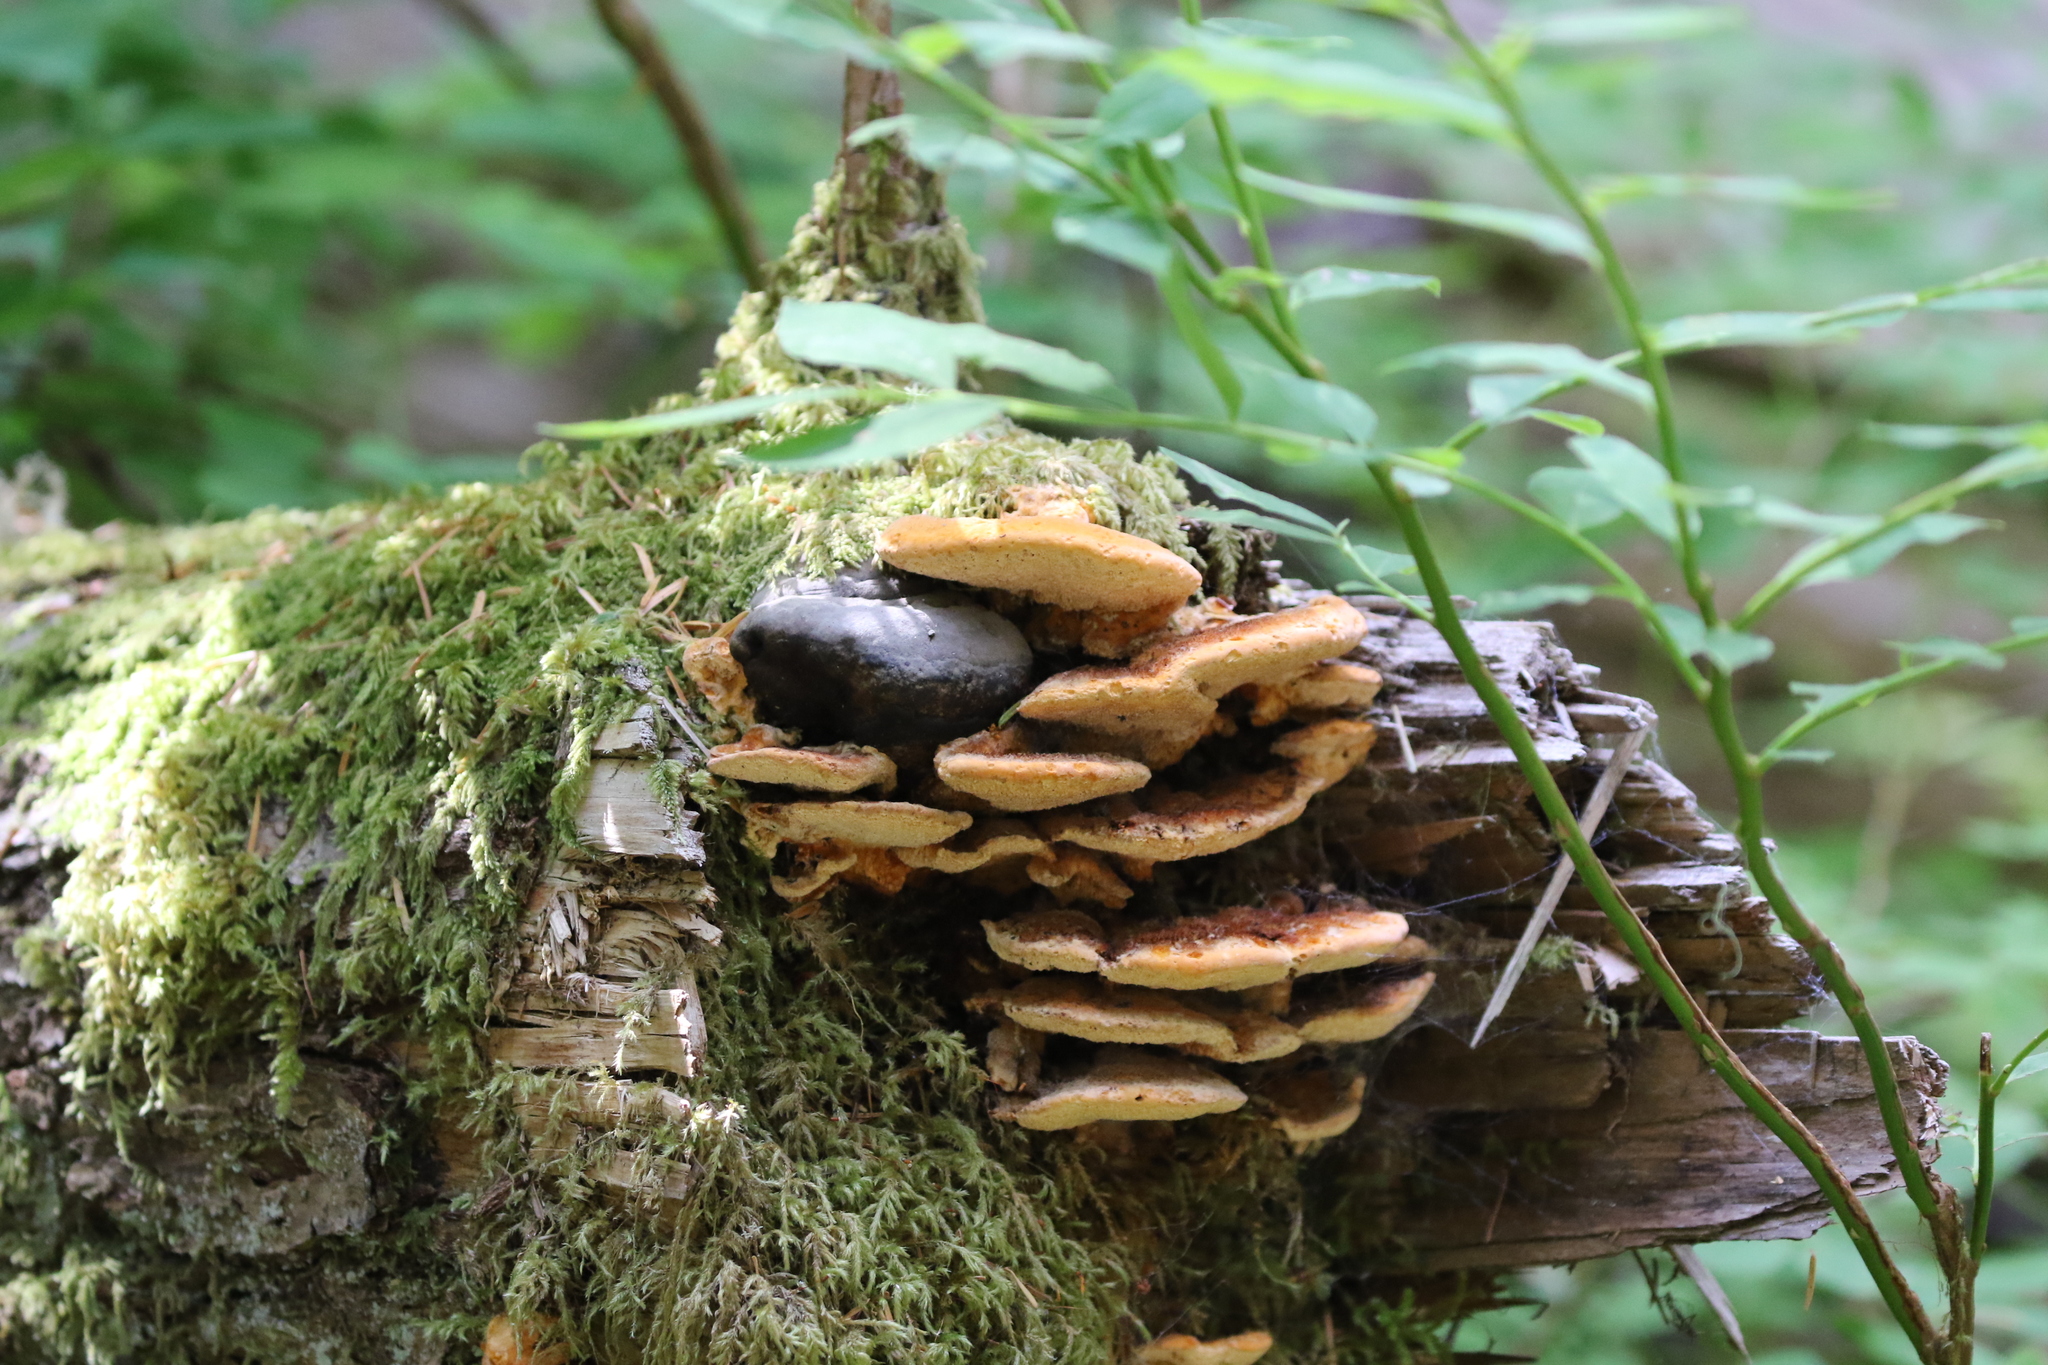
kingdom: Fungi
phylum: Basidiomycota
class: Agaricomycetes
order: Polyporales
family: Fomitopsidaceae
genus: Fomitopsis
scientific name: Fomitopsis mounceae
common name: Northern red belt
